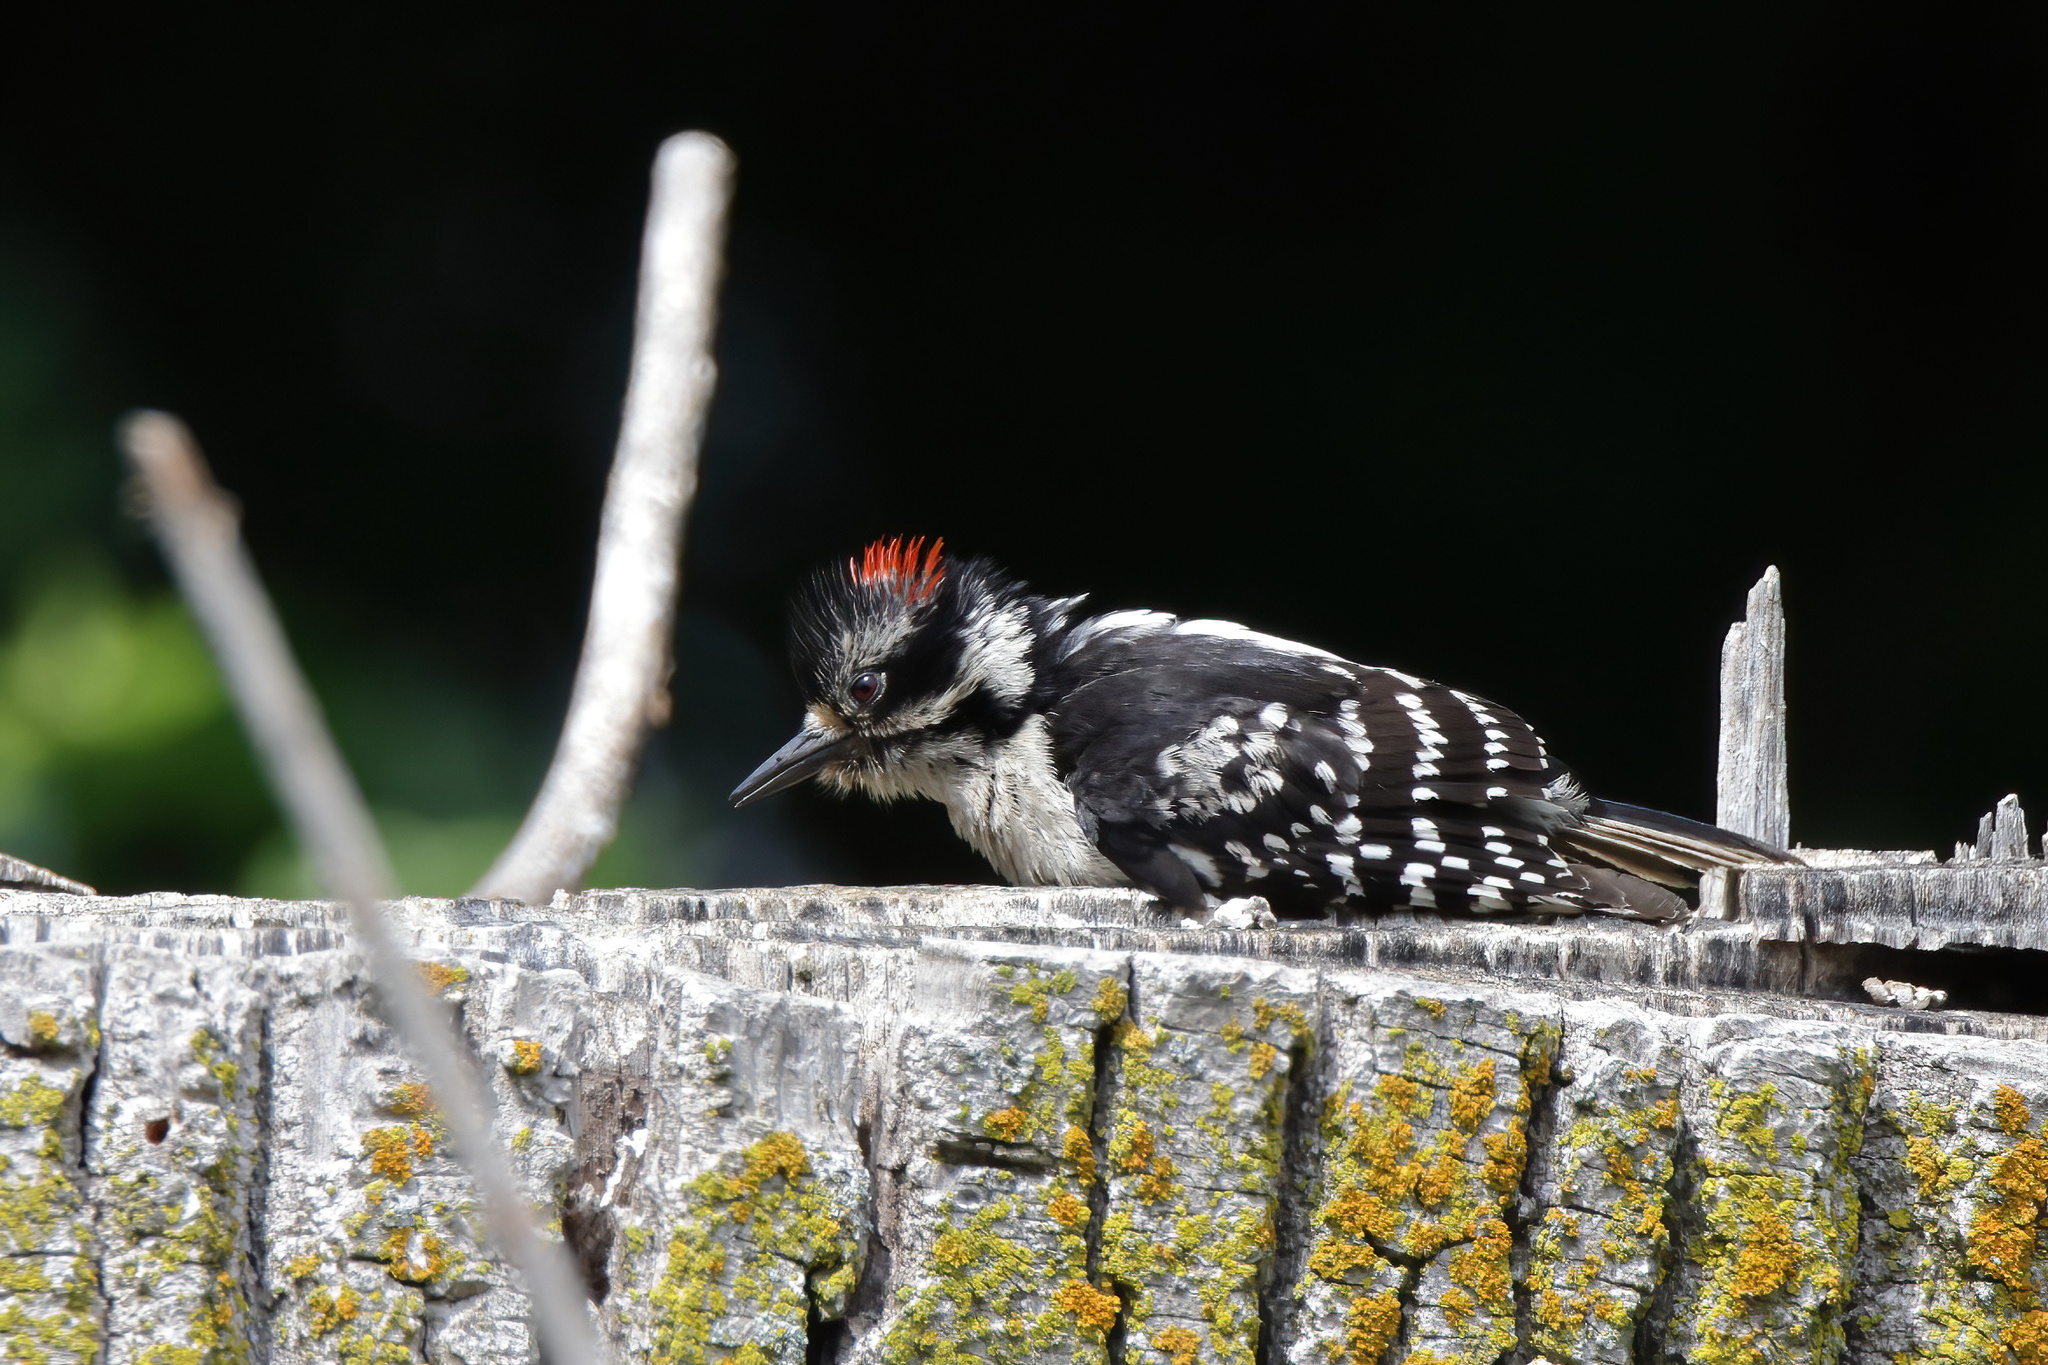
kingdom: Animalia
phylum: Chordata
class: Aves
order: Piciformes
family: Picidae
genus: Dryobates
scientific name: Dryobates pubescens
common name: Downy woodpecker
